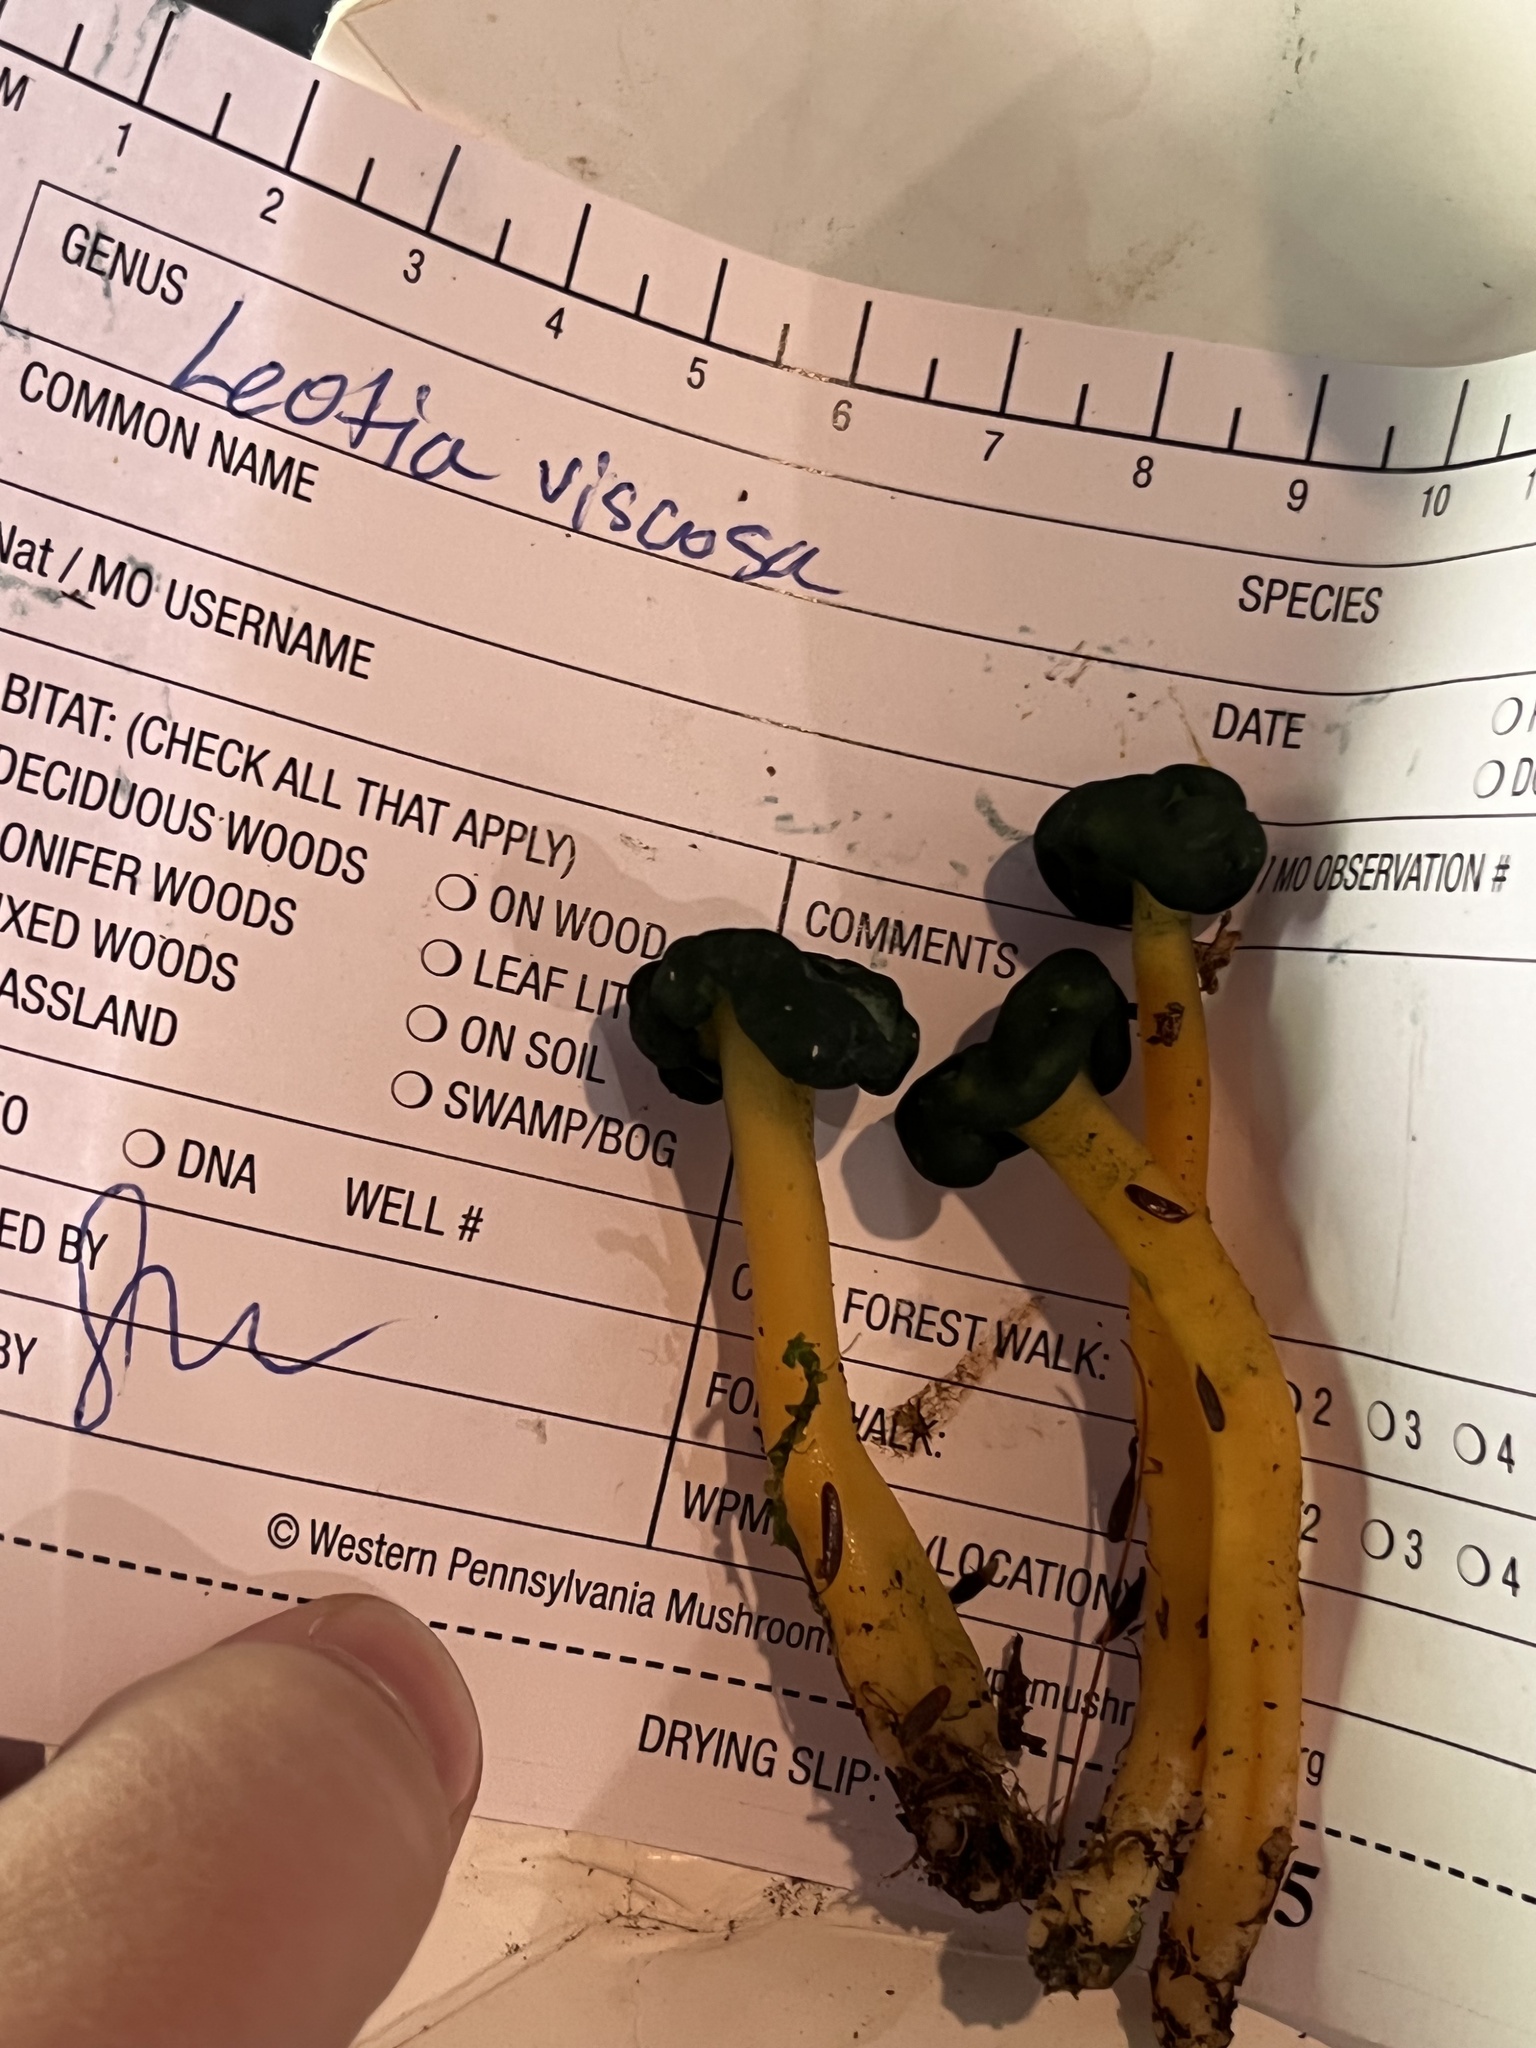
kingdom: Fungi
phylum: Ascomycota
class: Leotiomycetes
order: Leotiales
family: Leotiaceae
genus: Leotia
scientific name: Leotia lubrica
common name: Jellybaby
